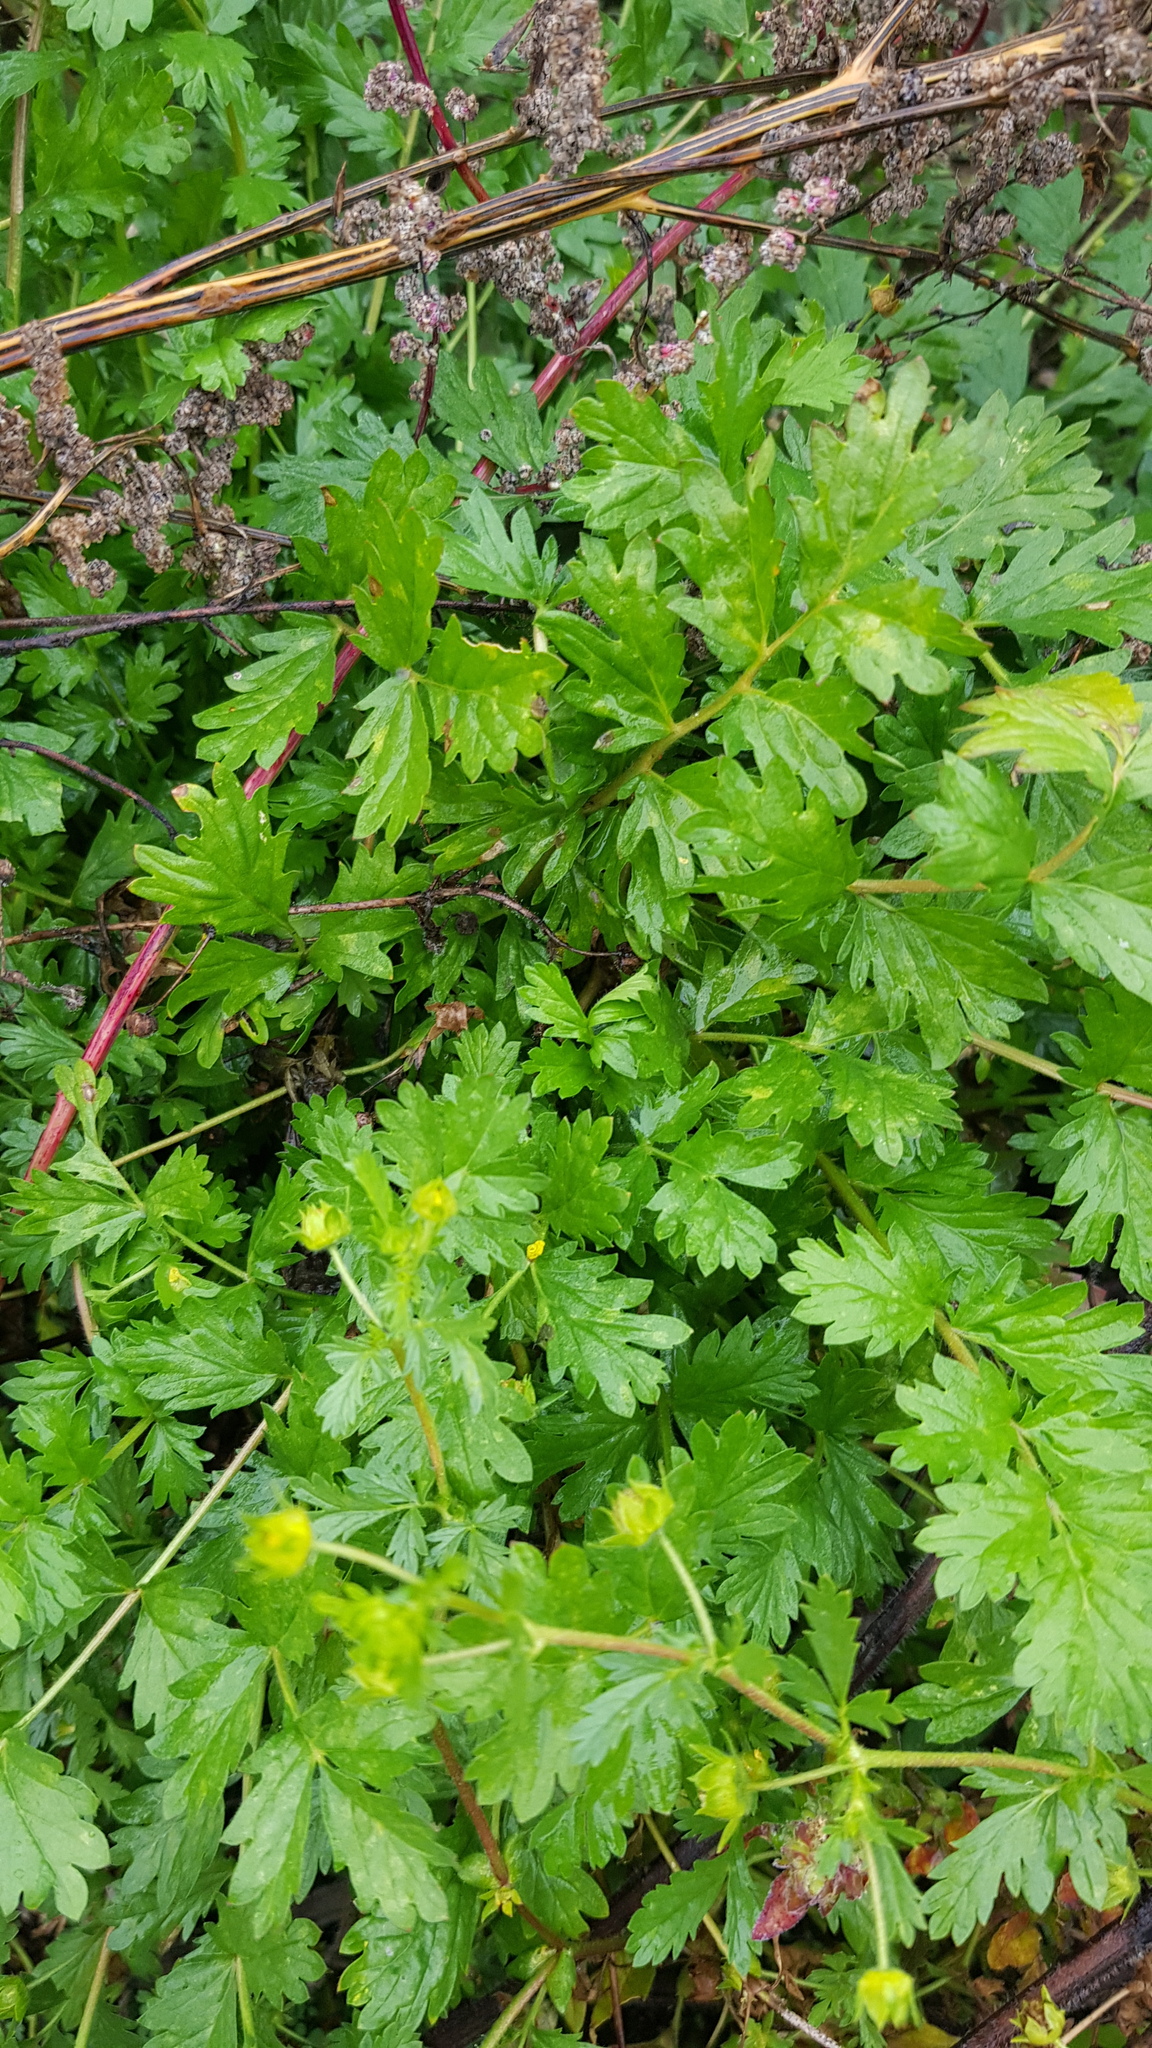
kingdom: Plantae
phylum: Tracheophyta
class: Magnoliopsida
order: Rosales
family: Rosaceae
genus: Potentilla
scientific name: Potentilla supina
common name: Prostrate cinquefoil
